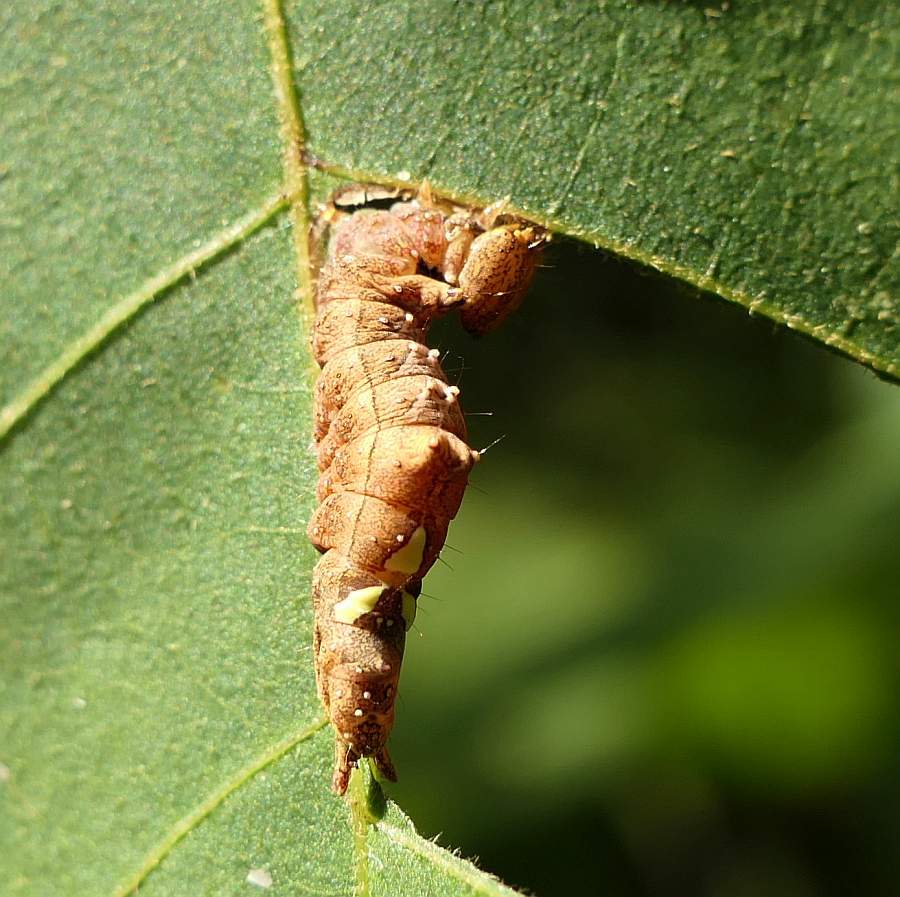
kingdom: Animalia
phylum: Arthropoda
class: Insecta
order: Lepidoptera
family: Notodontidae
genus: Schizura
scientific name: Schizura
